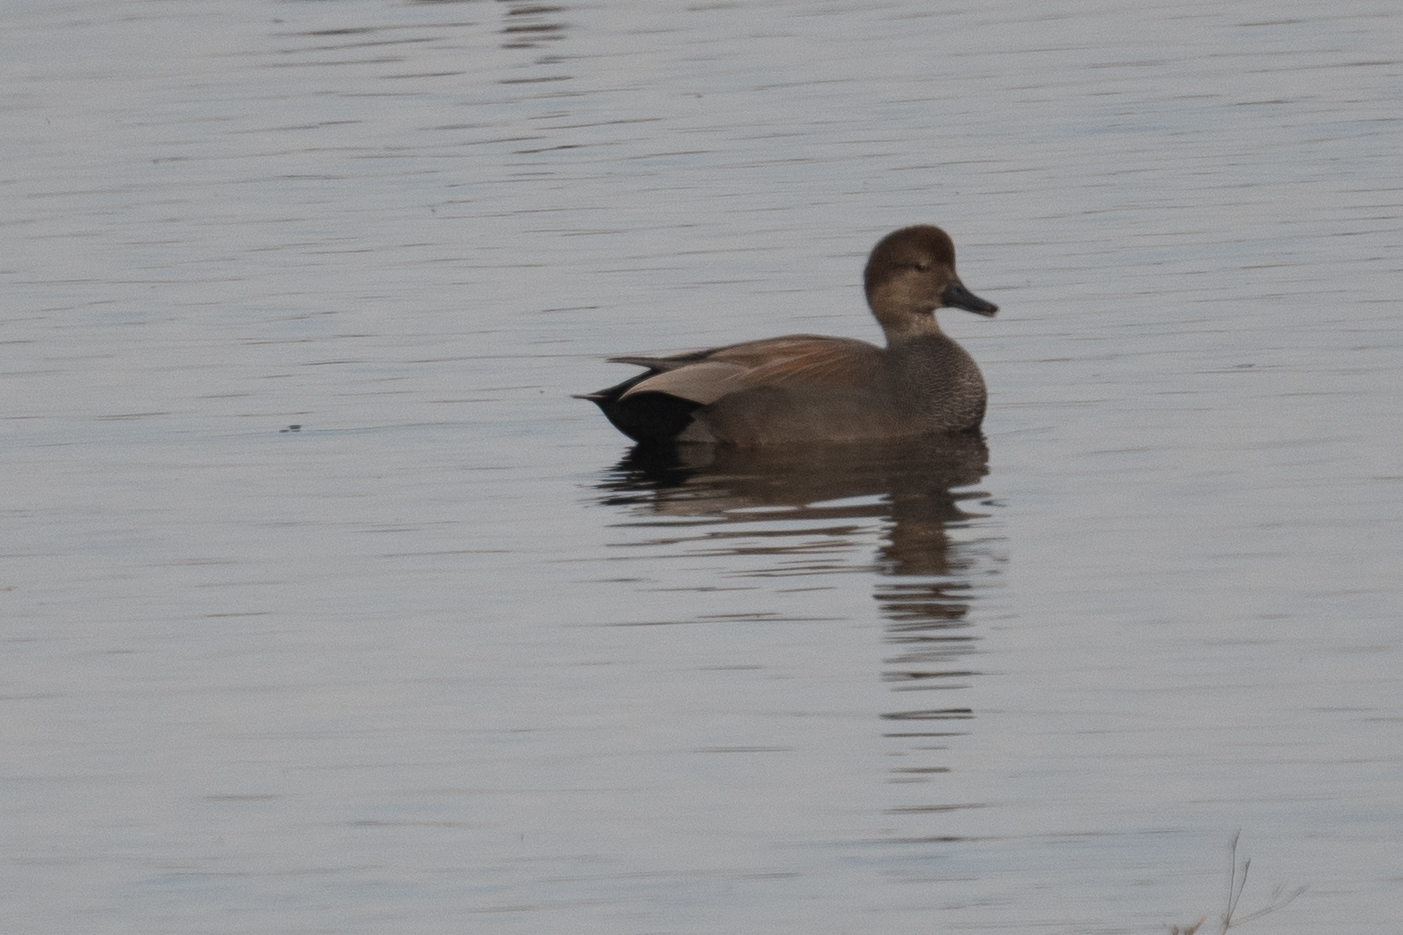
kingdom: Animalia
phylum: Chordata
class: Aves
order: Anseriformes
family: Anatidae
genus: Mareca
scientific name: Mareca strepera
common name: Gadwall
